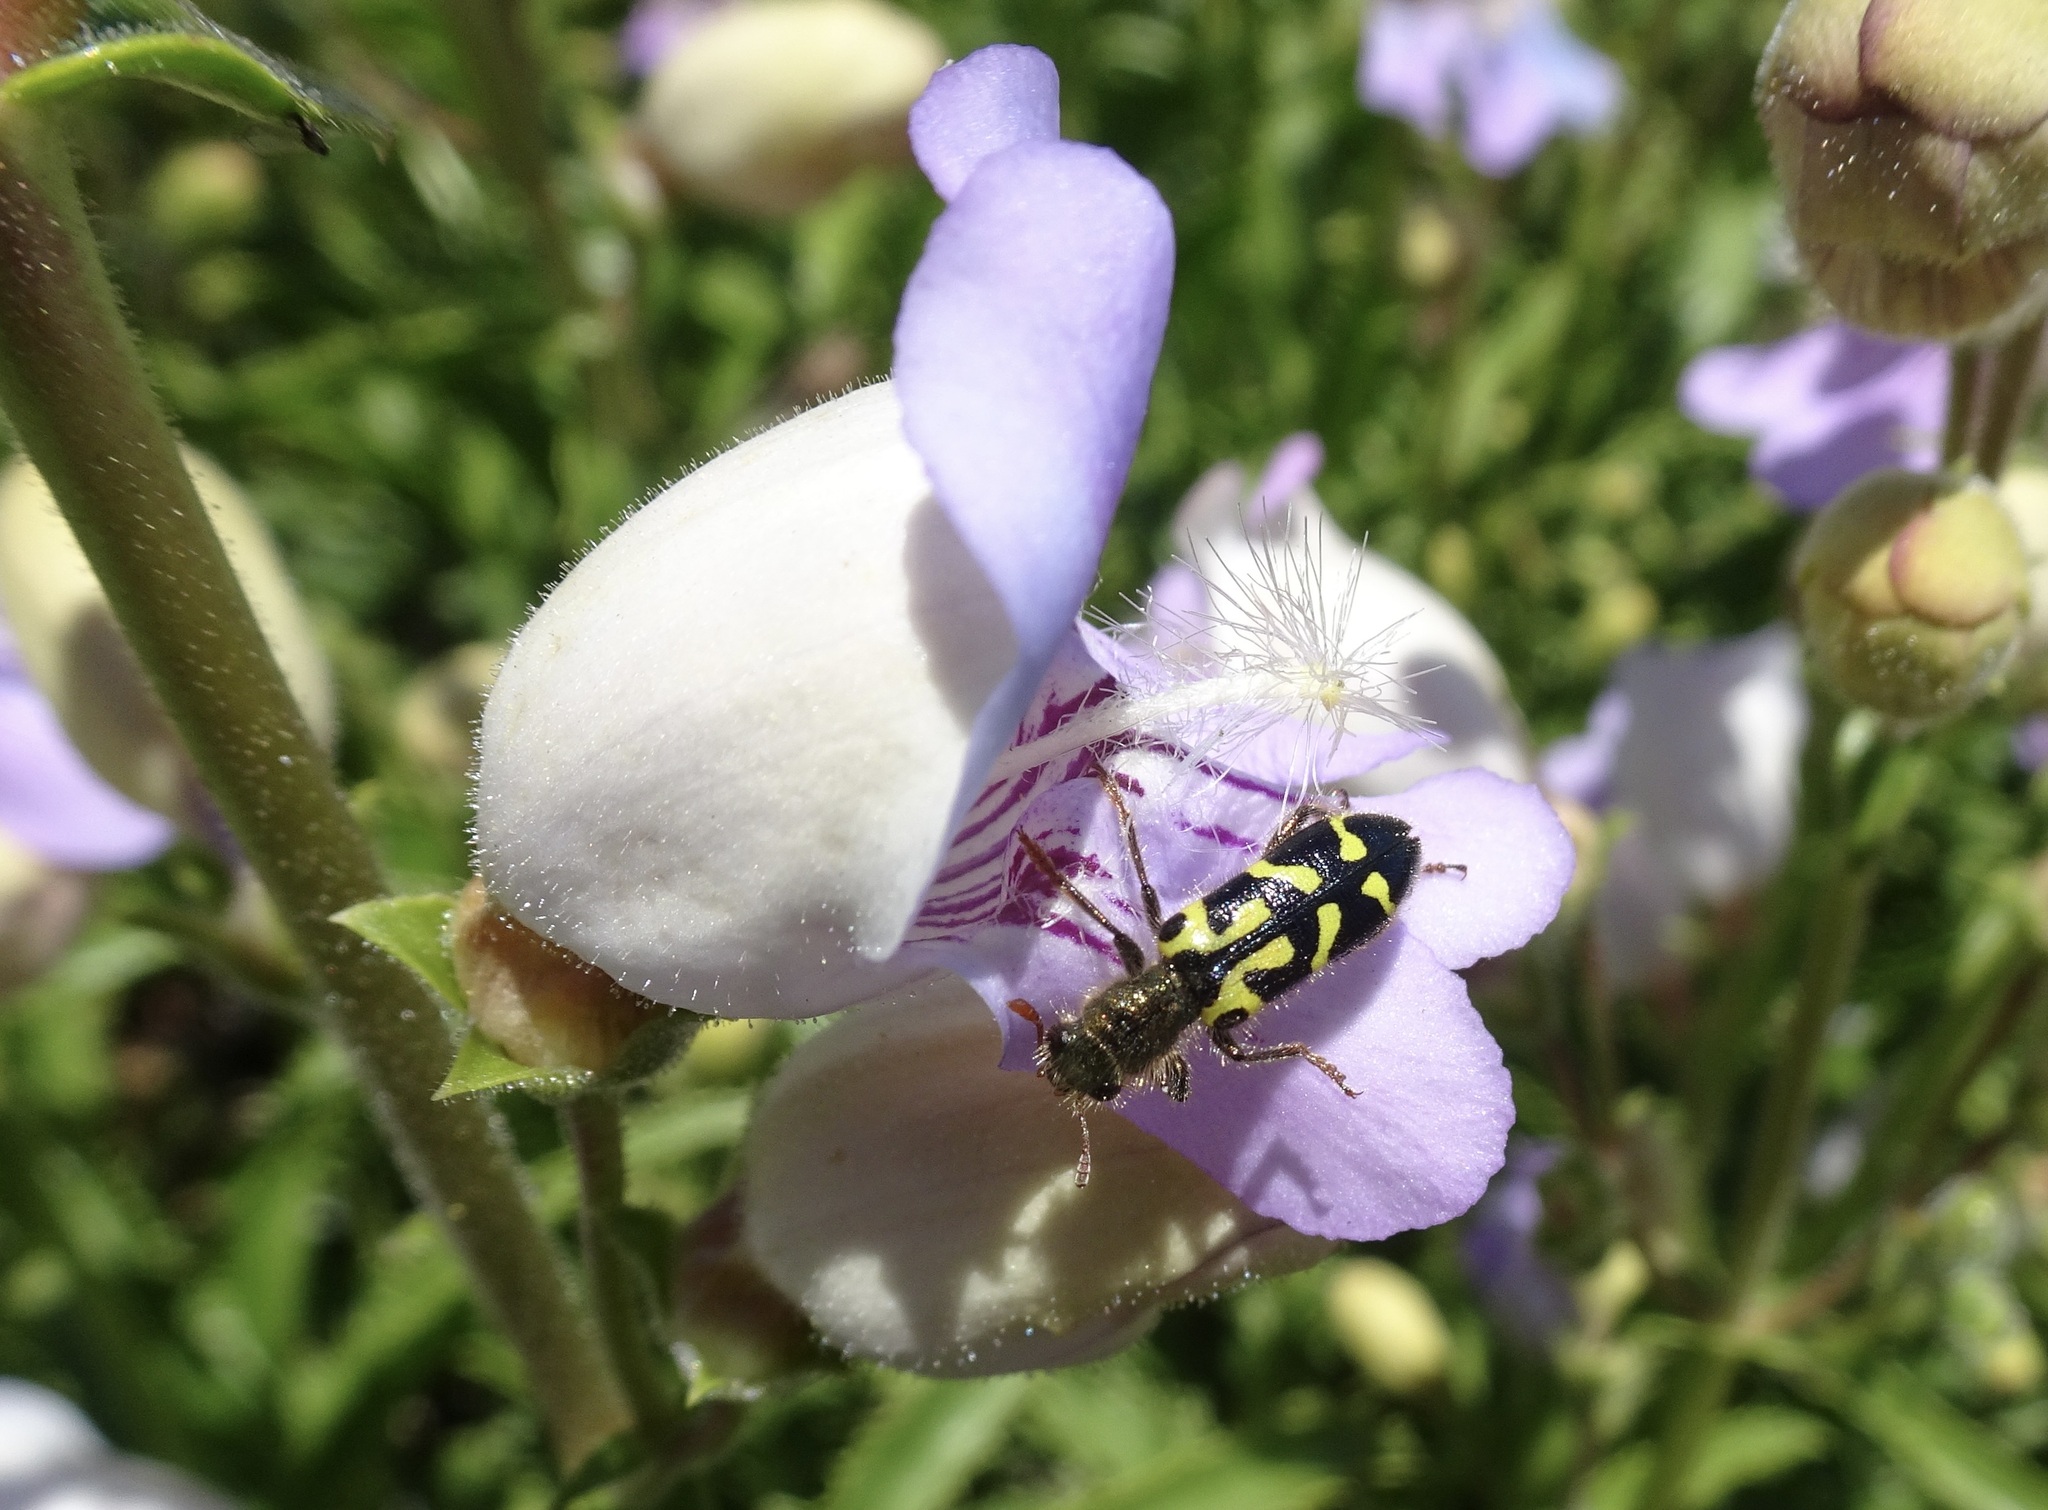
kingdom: Animalia
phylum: Arthropoda
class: Insecta
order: Coleoptera
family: Cleridae
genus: Trichodes
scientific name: Trichodes ornatus
